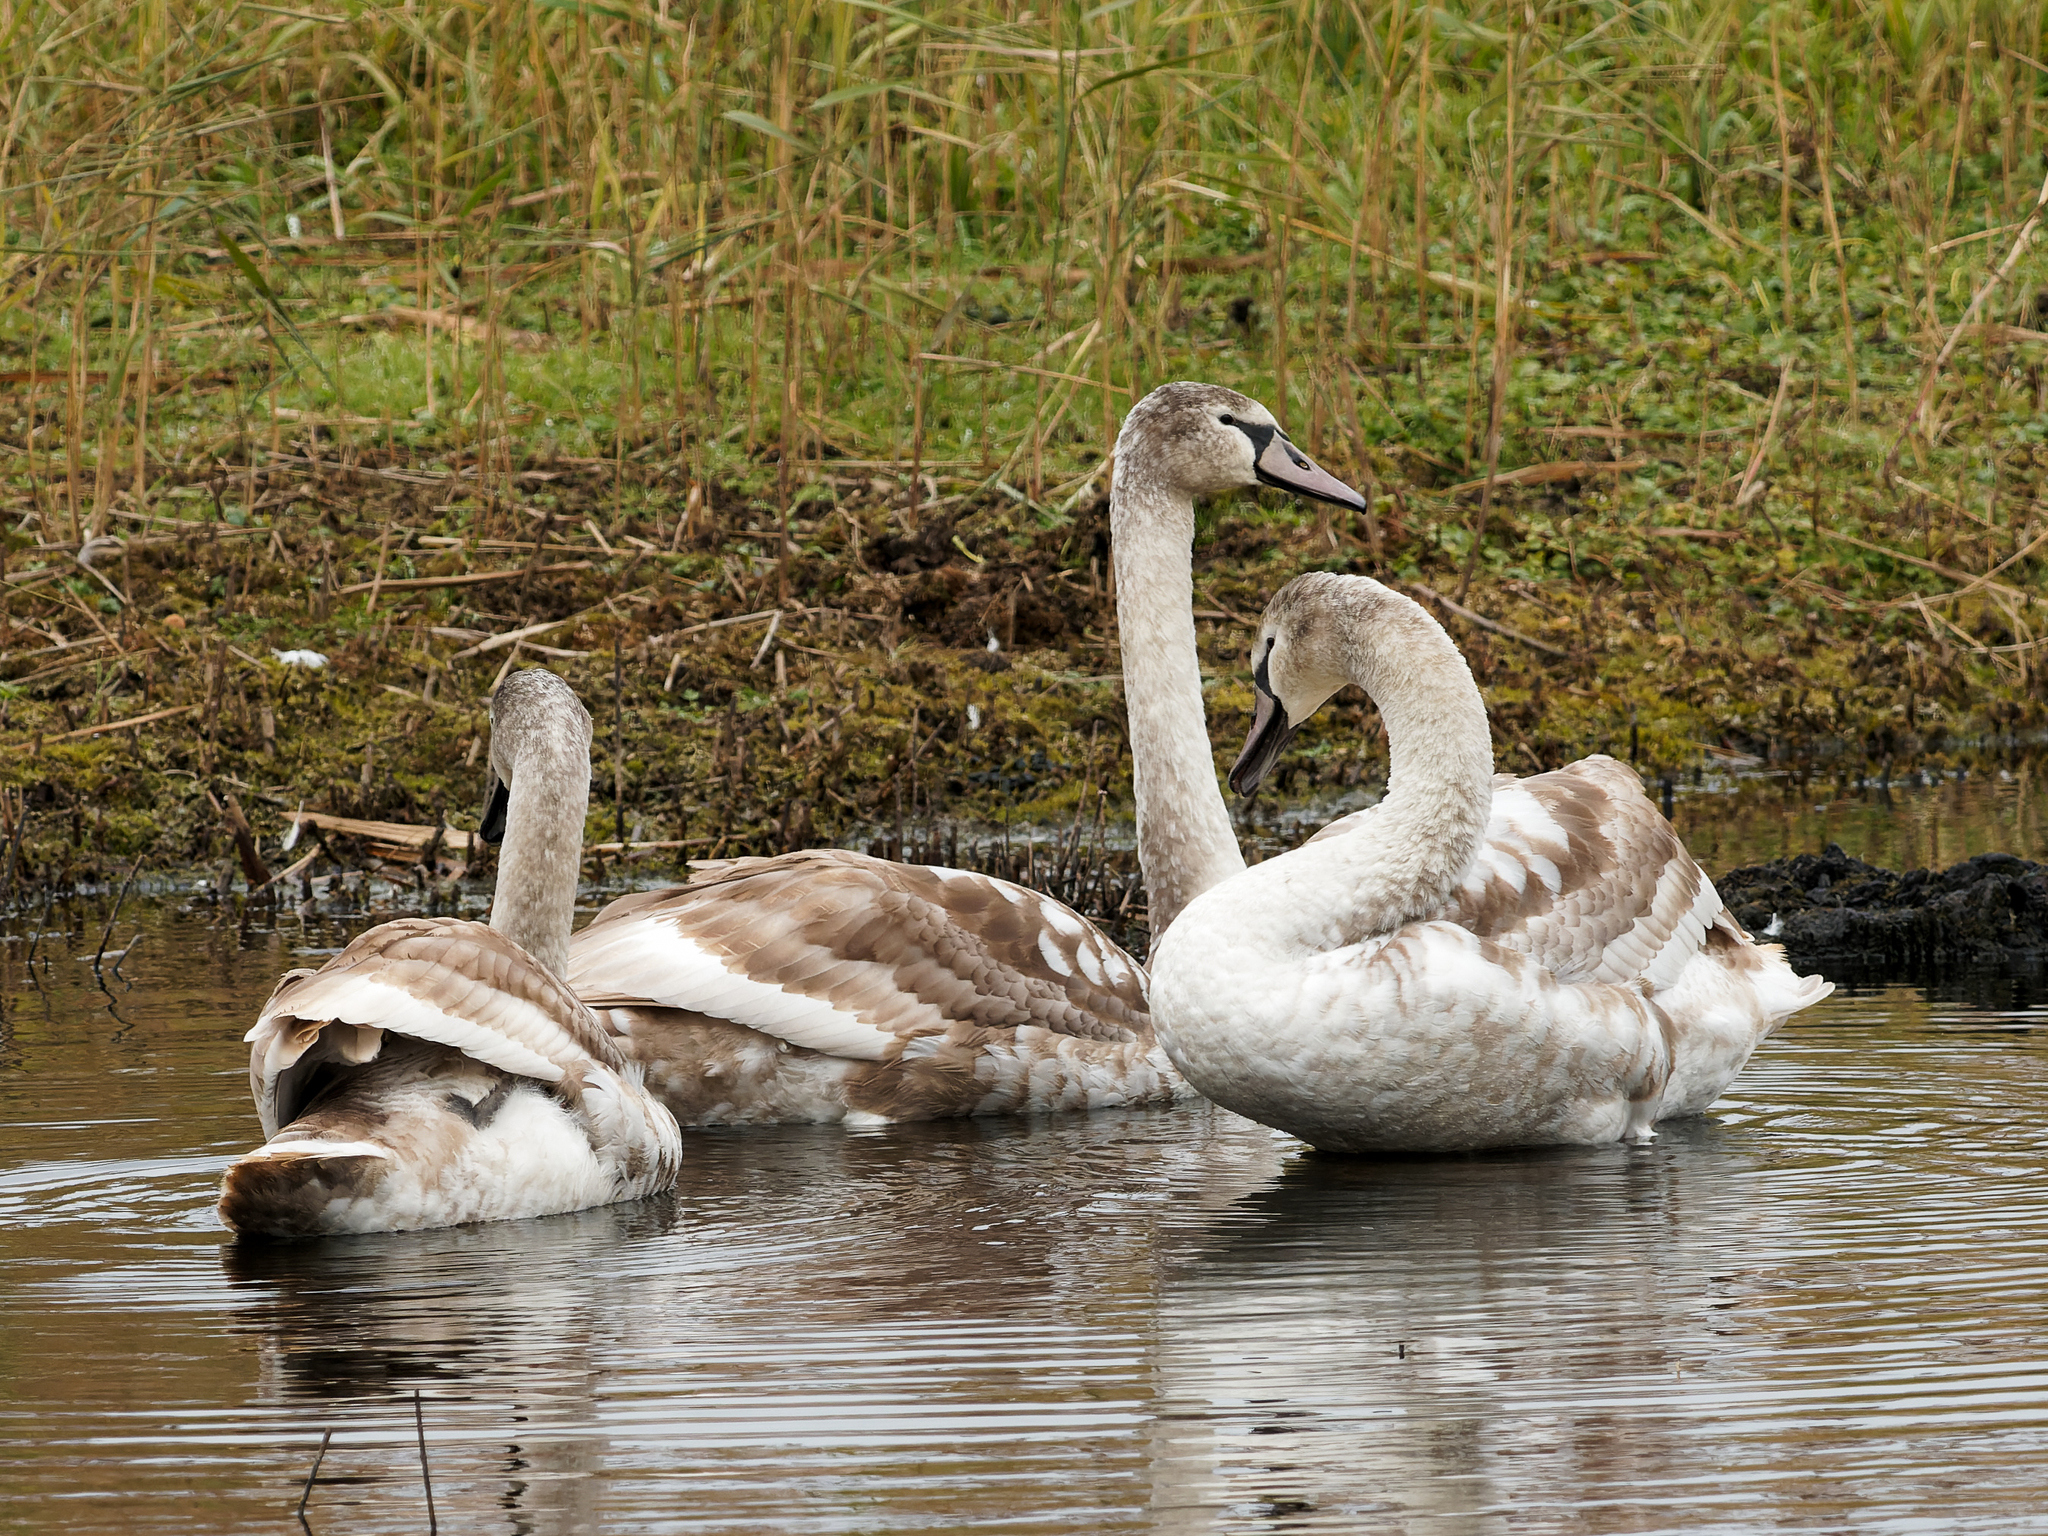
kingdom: Animalia
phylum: Chordata
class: Aves
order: Anseriformes
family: Anatidae
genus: Cygnus
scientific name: Cygnus olor
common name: Mute swan
